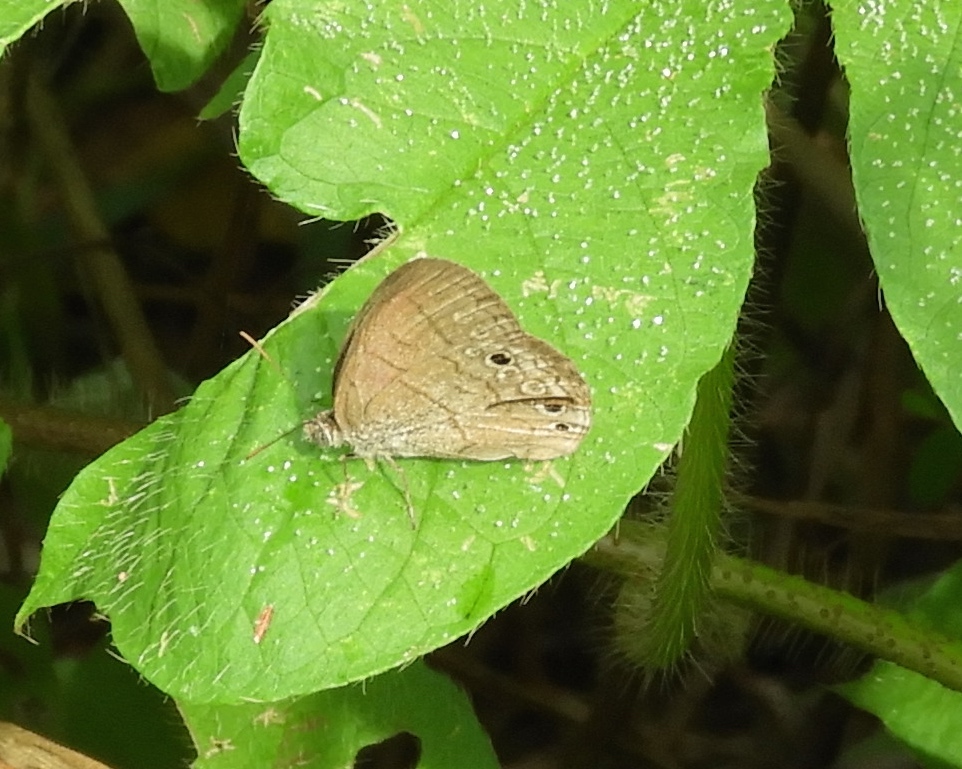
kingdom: Animalia
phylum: Arthropoda
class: Insecta
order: Lepidoptera
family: Nymphalidae
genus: Hermeuptychia
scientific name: Hermeuptychia hermes
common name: Hermes satyr
